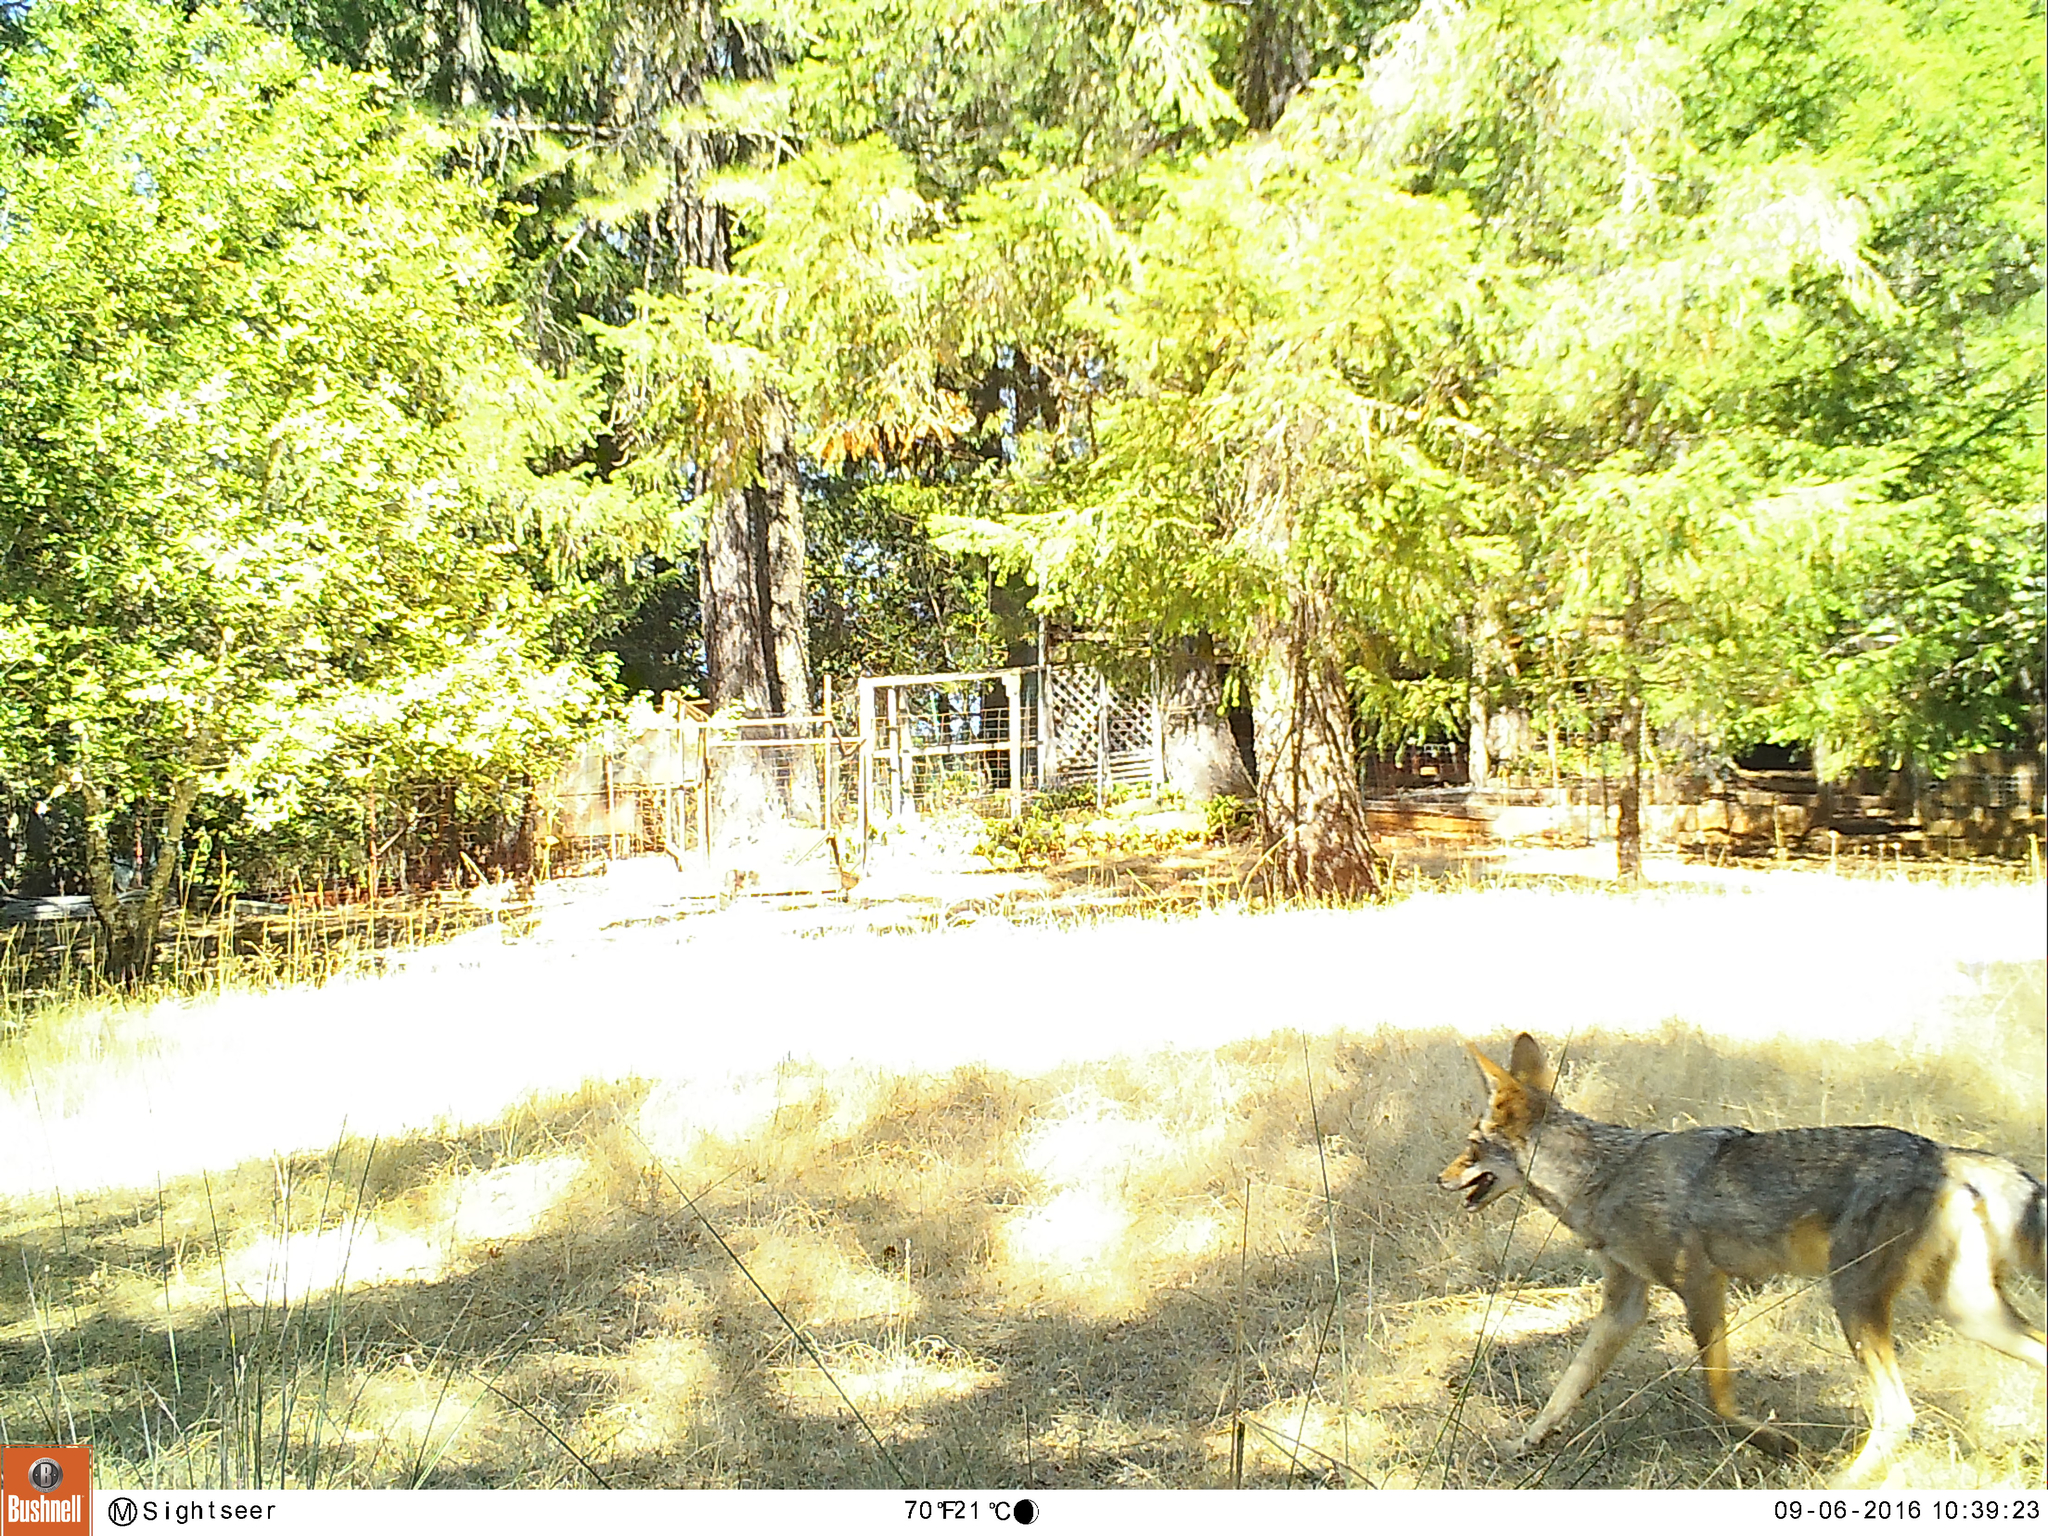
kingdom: Animalia
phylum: Chordata
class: Mammalia
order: Carnivora
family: Canidae
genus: Canis
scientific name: Canis latrans
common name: Coyote
